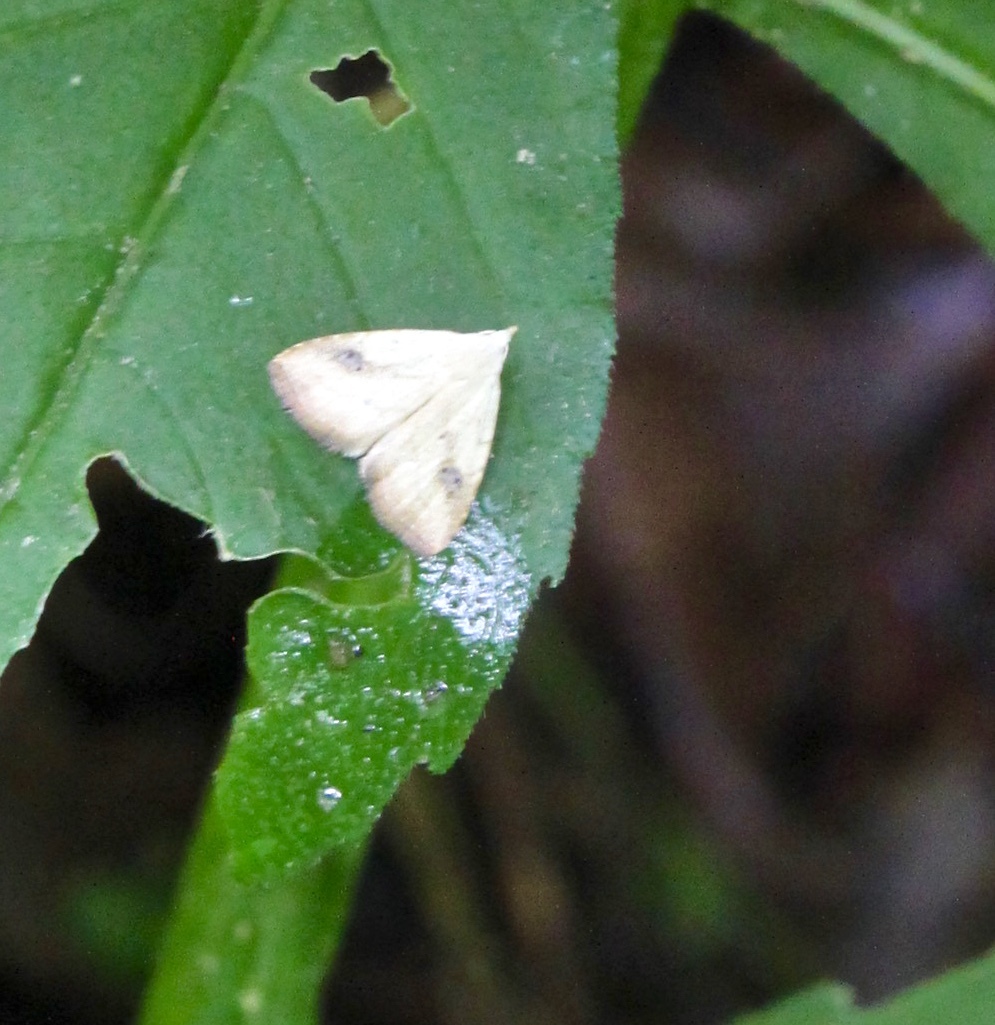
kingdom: Animalia
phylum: Arthropoda
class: Insecta
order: Lepidoptera
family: Erebidae
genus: Rivula
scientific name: Rivula propinqualis
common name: Spotted grass moth
